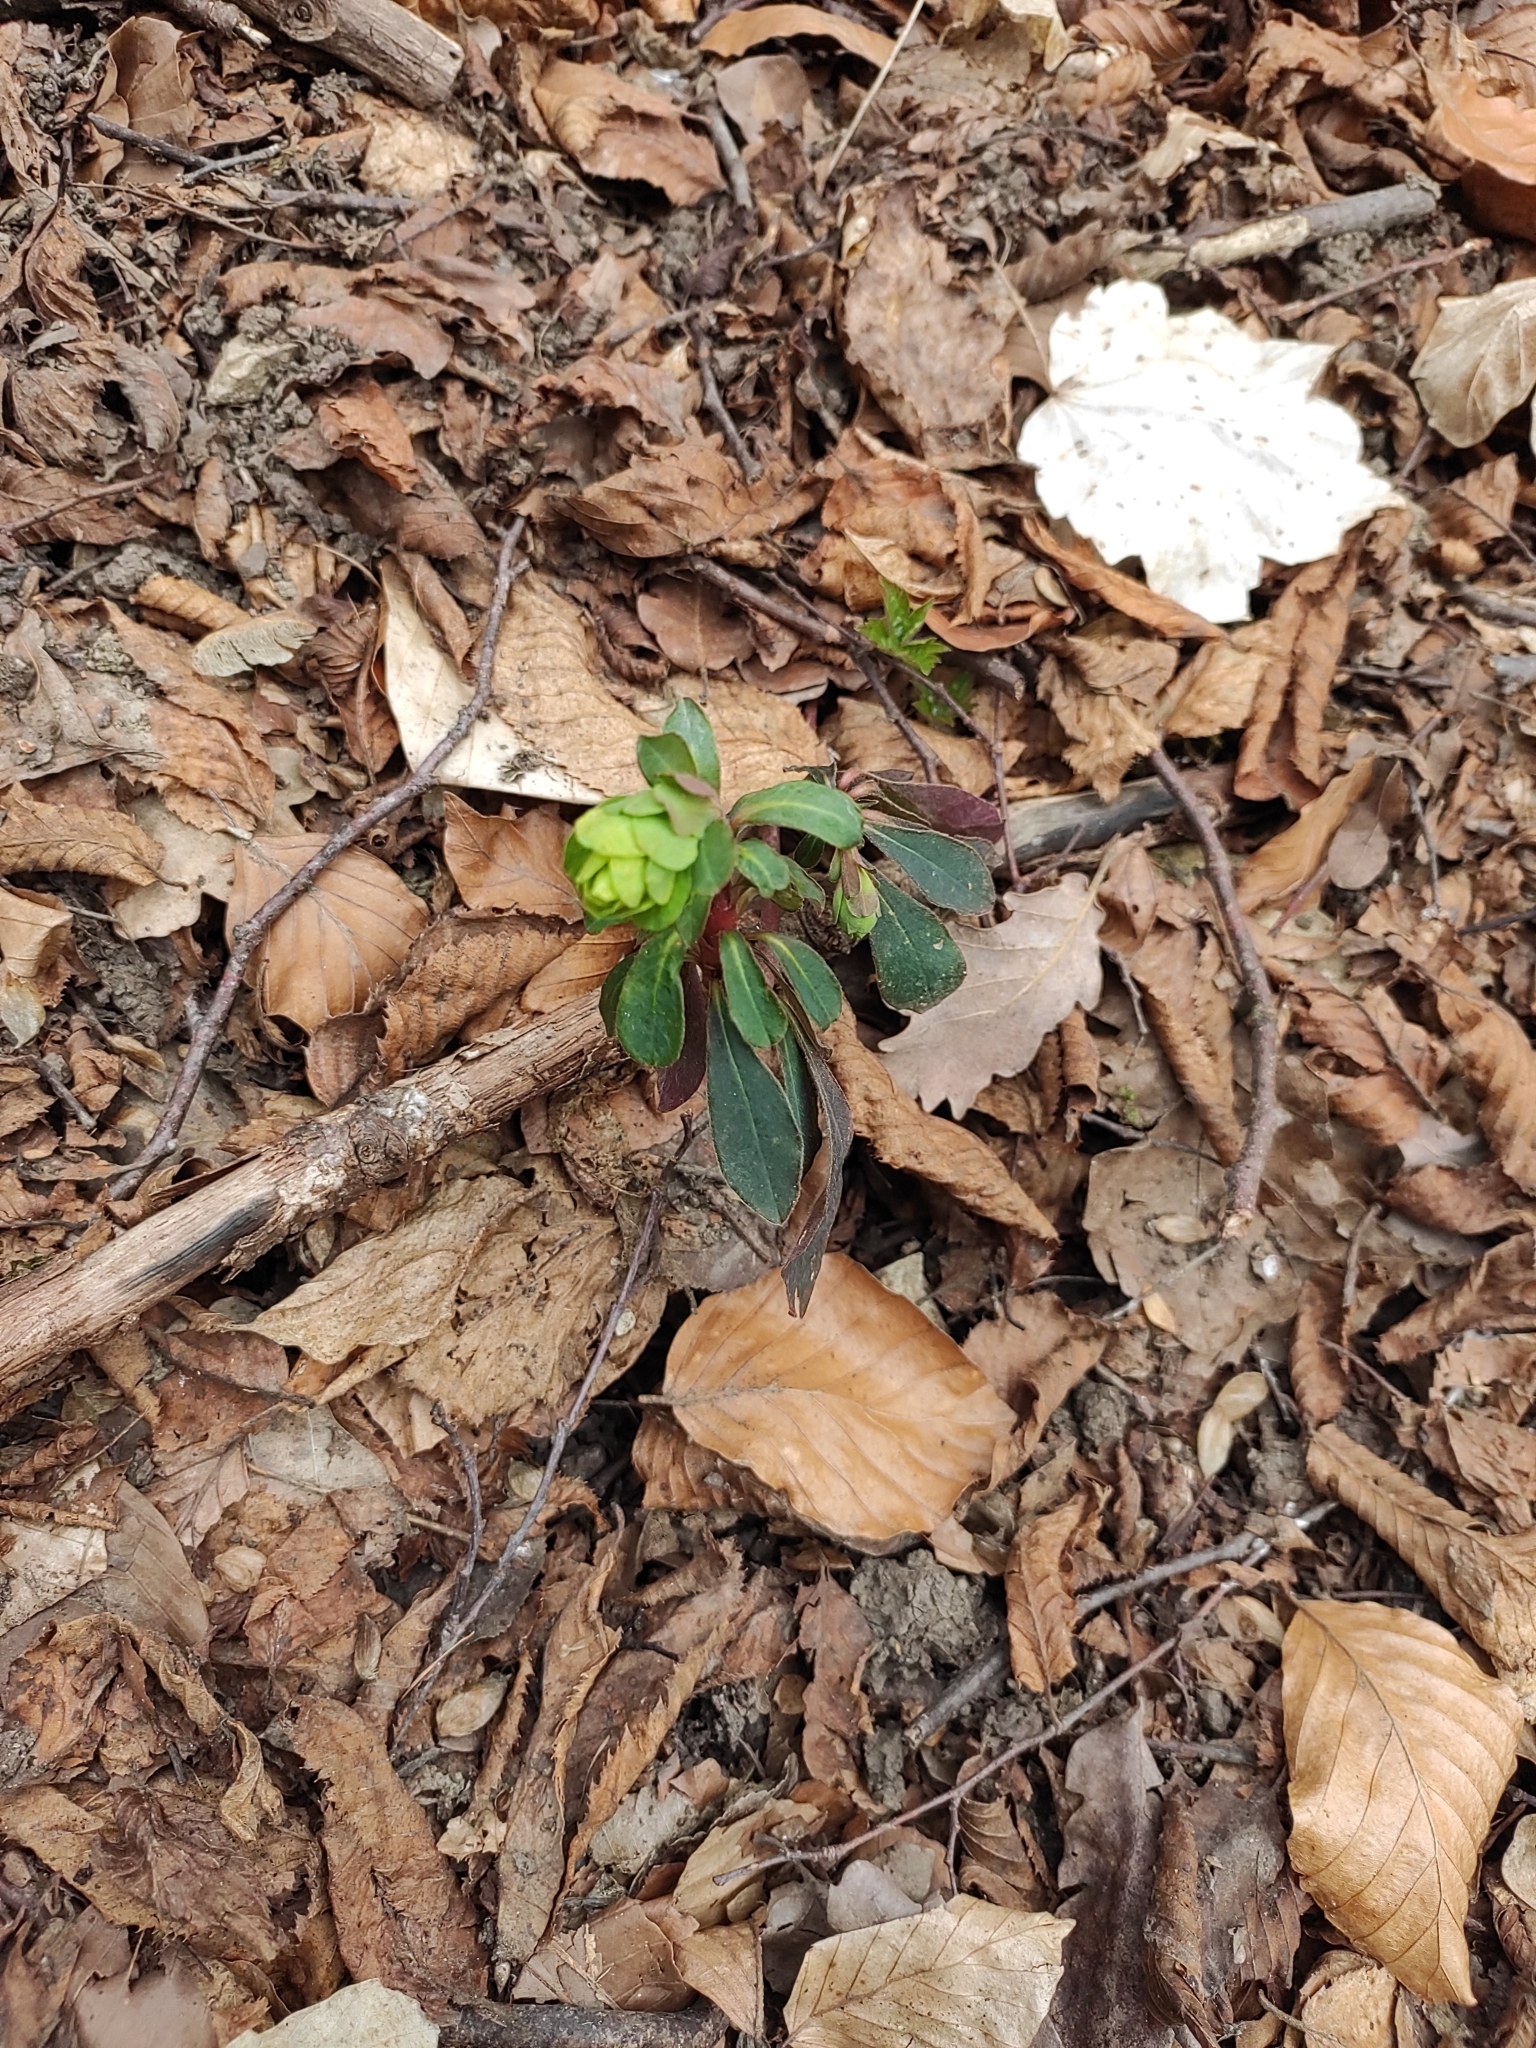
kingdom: Plantae
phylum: Tracheophyta
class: Magnoliopsida
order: Malpighiales
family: Euphorbiaceae
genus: Euphorbia
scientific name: Euphorbia amygdaloides
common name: Wood spurge
